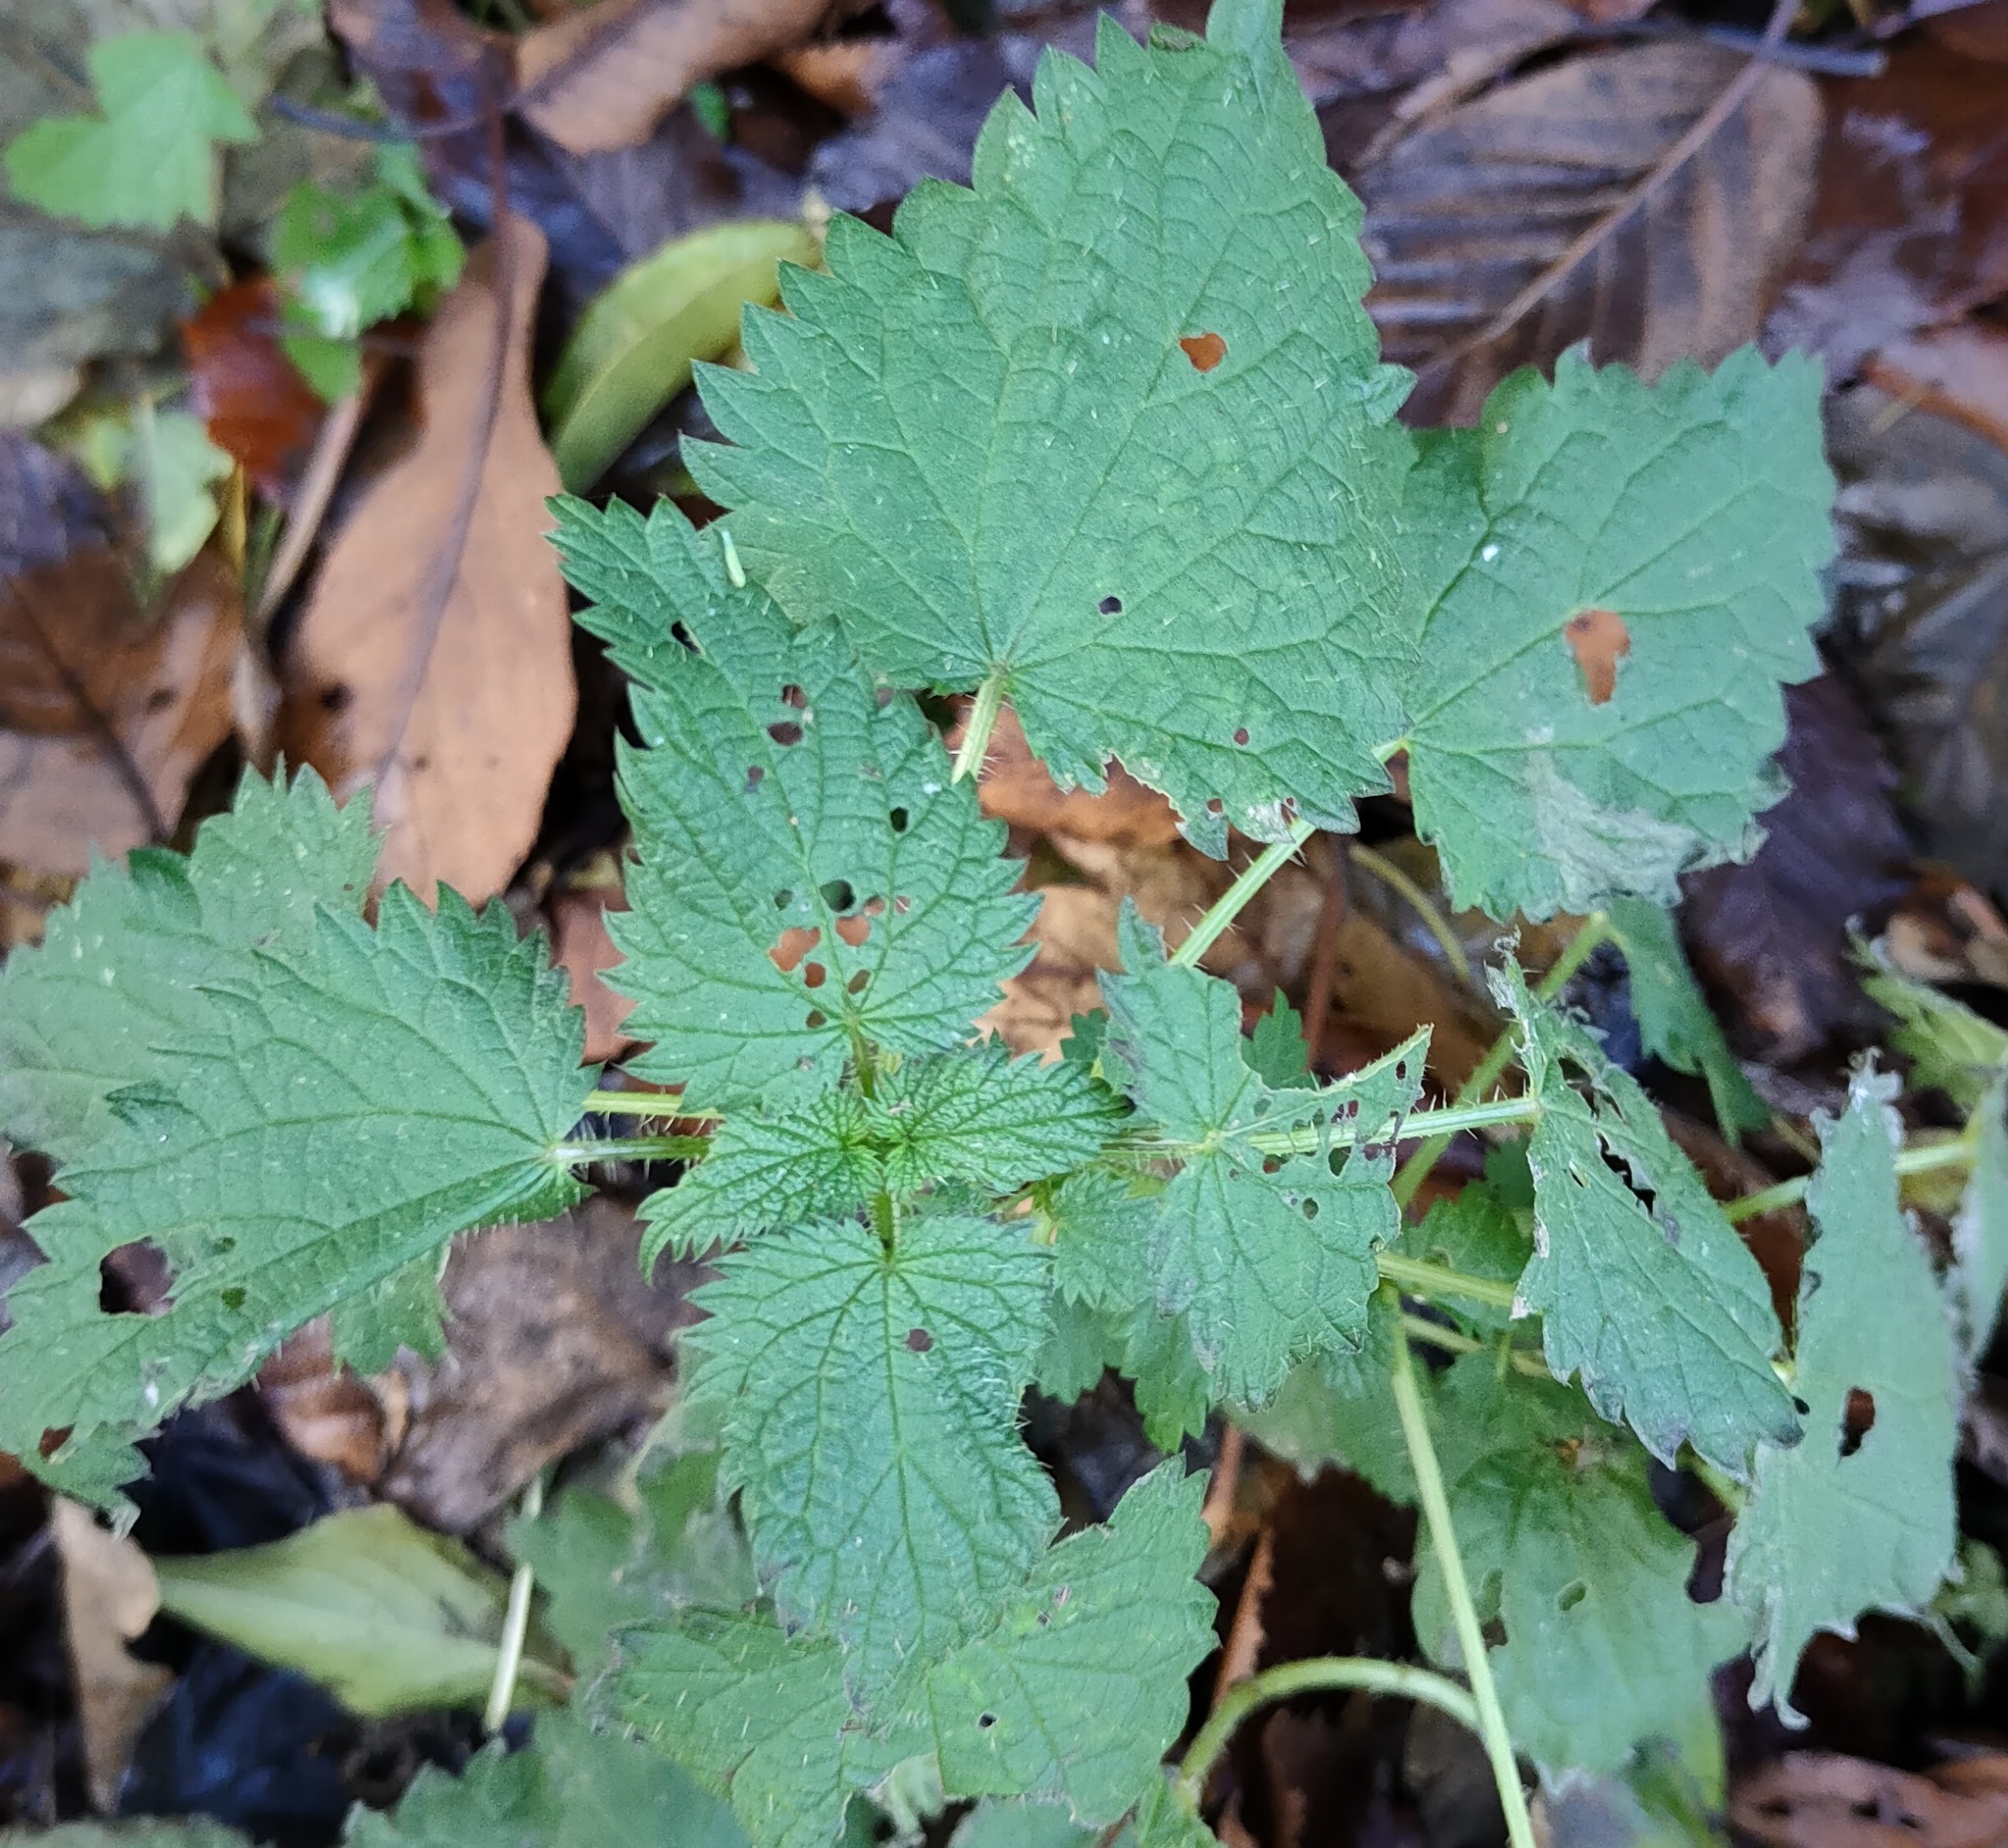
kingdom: Plantae
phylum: Tracheophyta
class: Magnoliopsida
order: Rosales
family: Urticaceae
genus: Urtica
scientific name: Urtica dioica
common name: Common nettle
